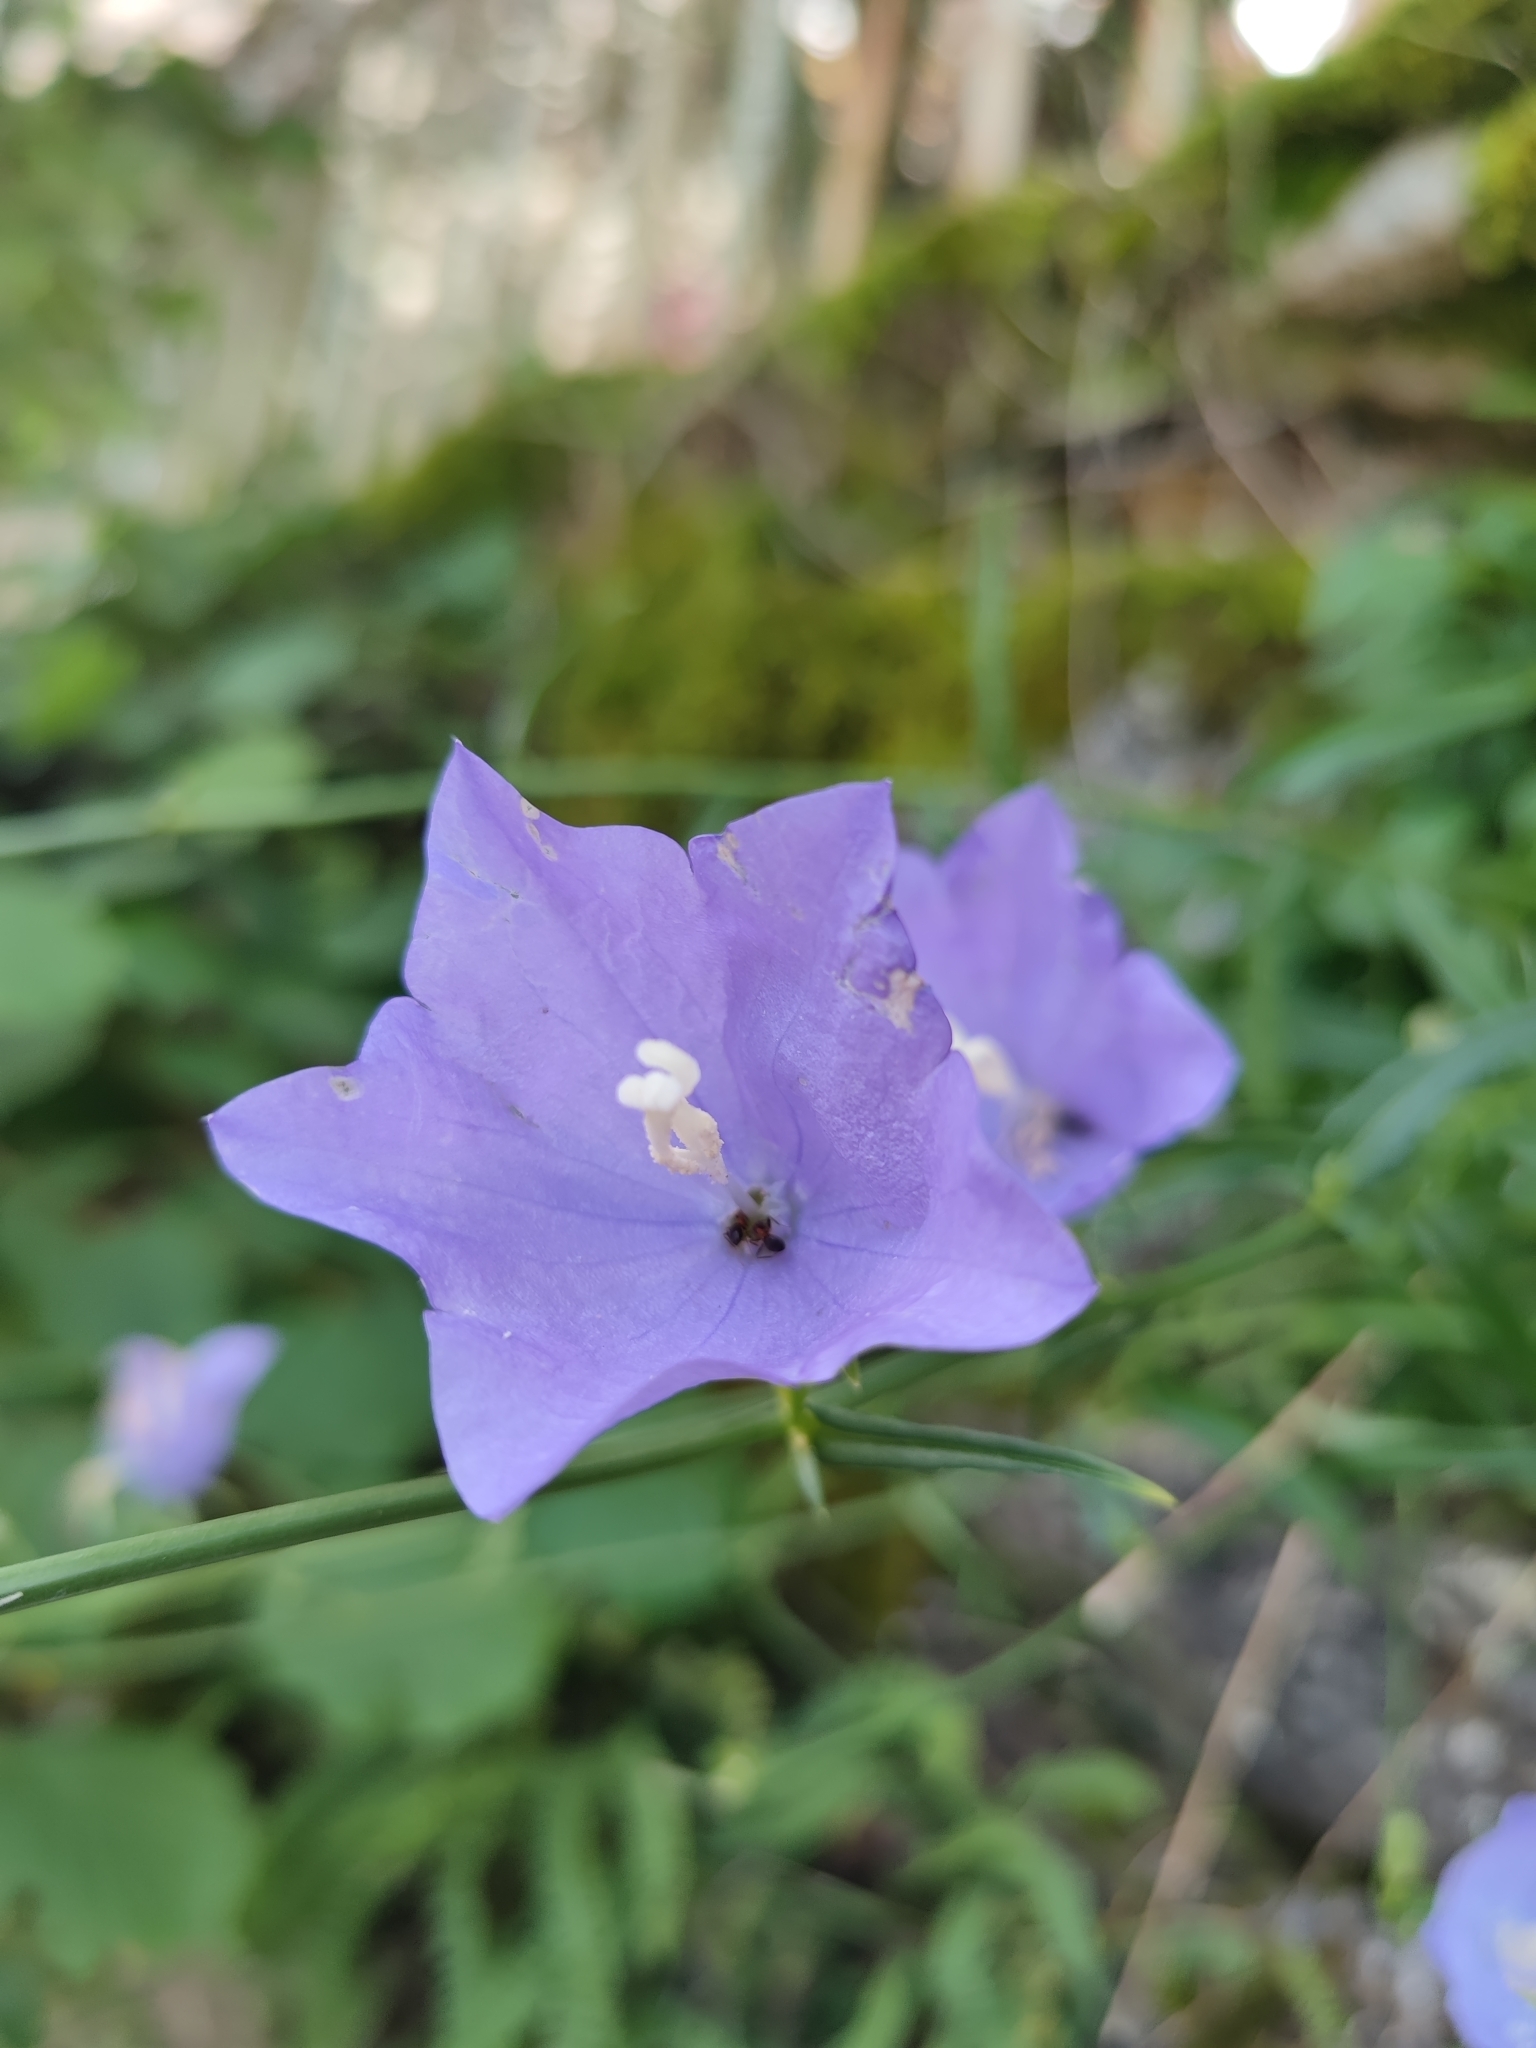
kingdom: Plantae
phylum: Tracheophyta
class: Magnoliopsida
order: Asterales
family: Campanulaceae
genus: Campanula
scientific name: Campanula persicifolia
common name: Peach-leaved bellflower
